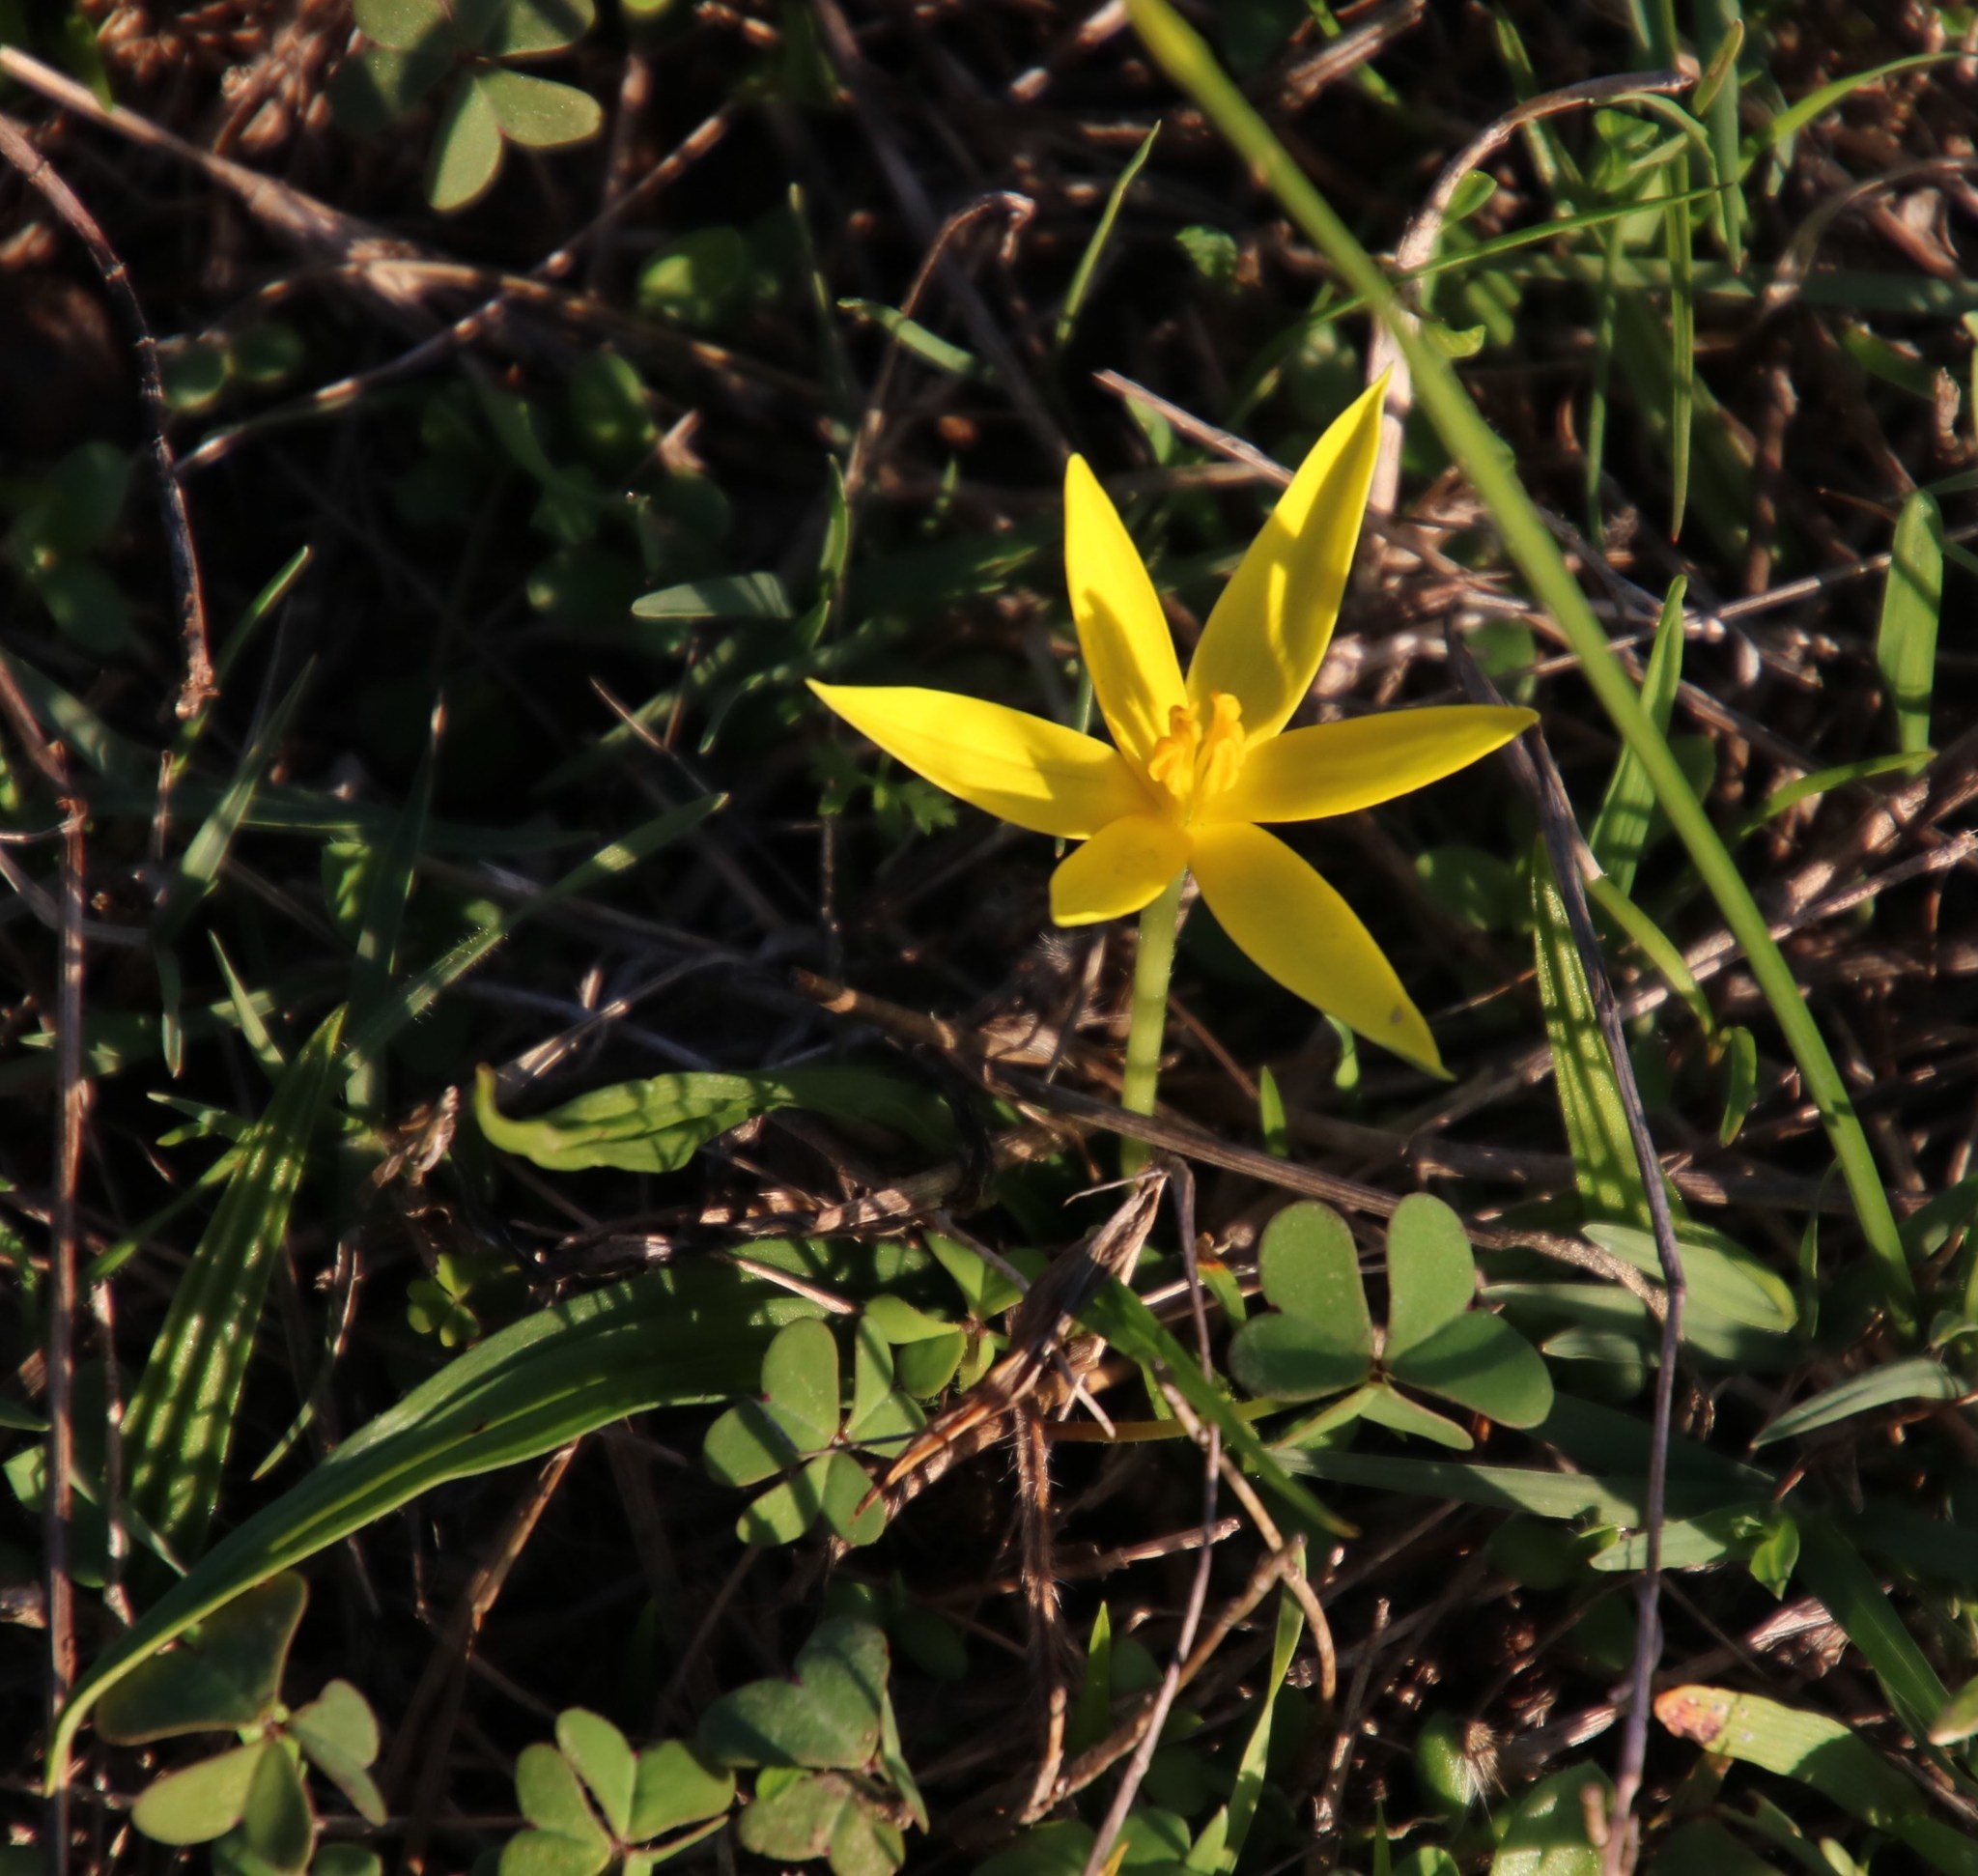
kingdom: Plantae
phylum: Tracheophyta
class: Liliopsida
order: Asparagales
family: Hypoxidaceae
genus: Empodium
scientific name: Empodium plicatum
